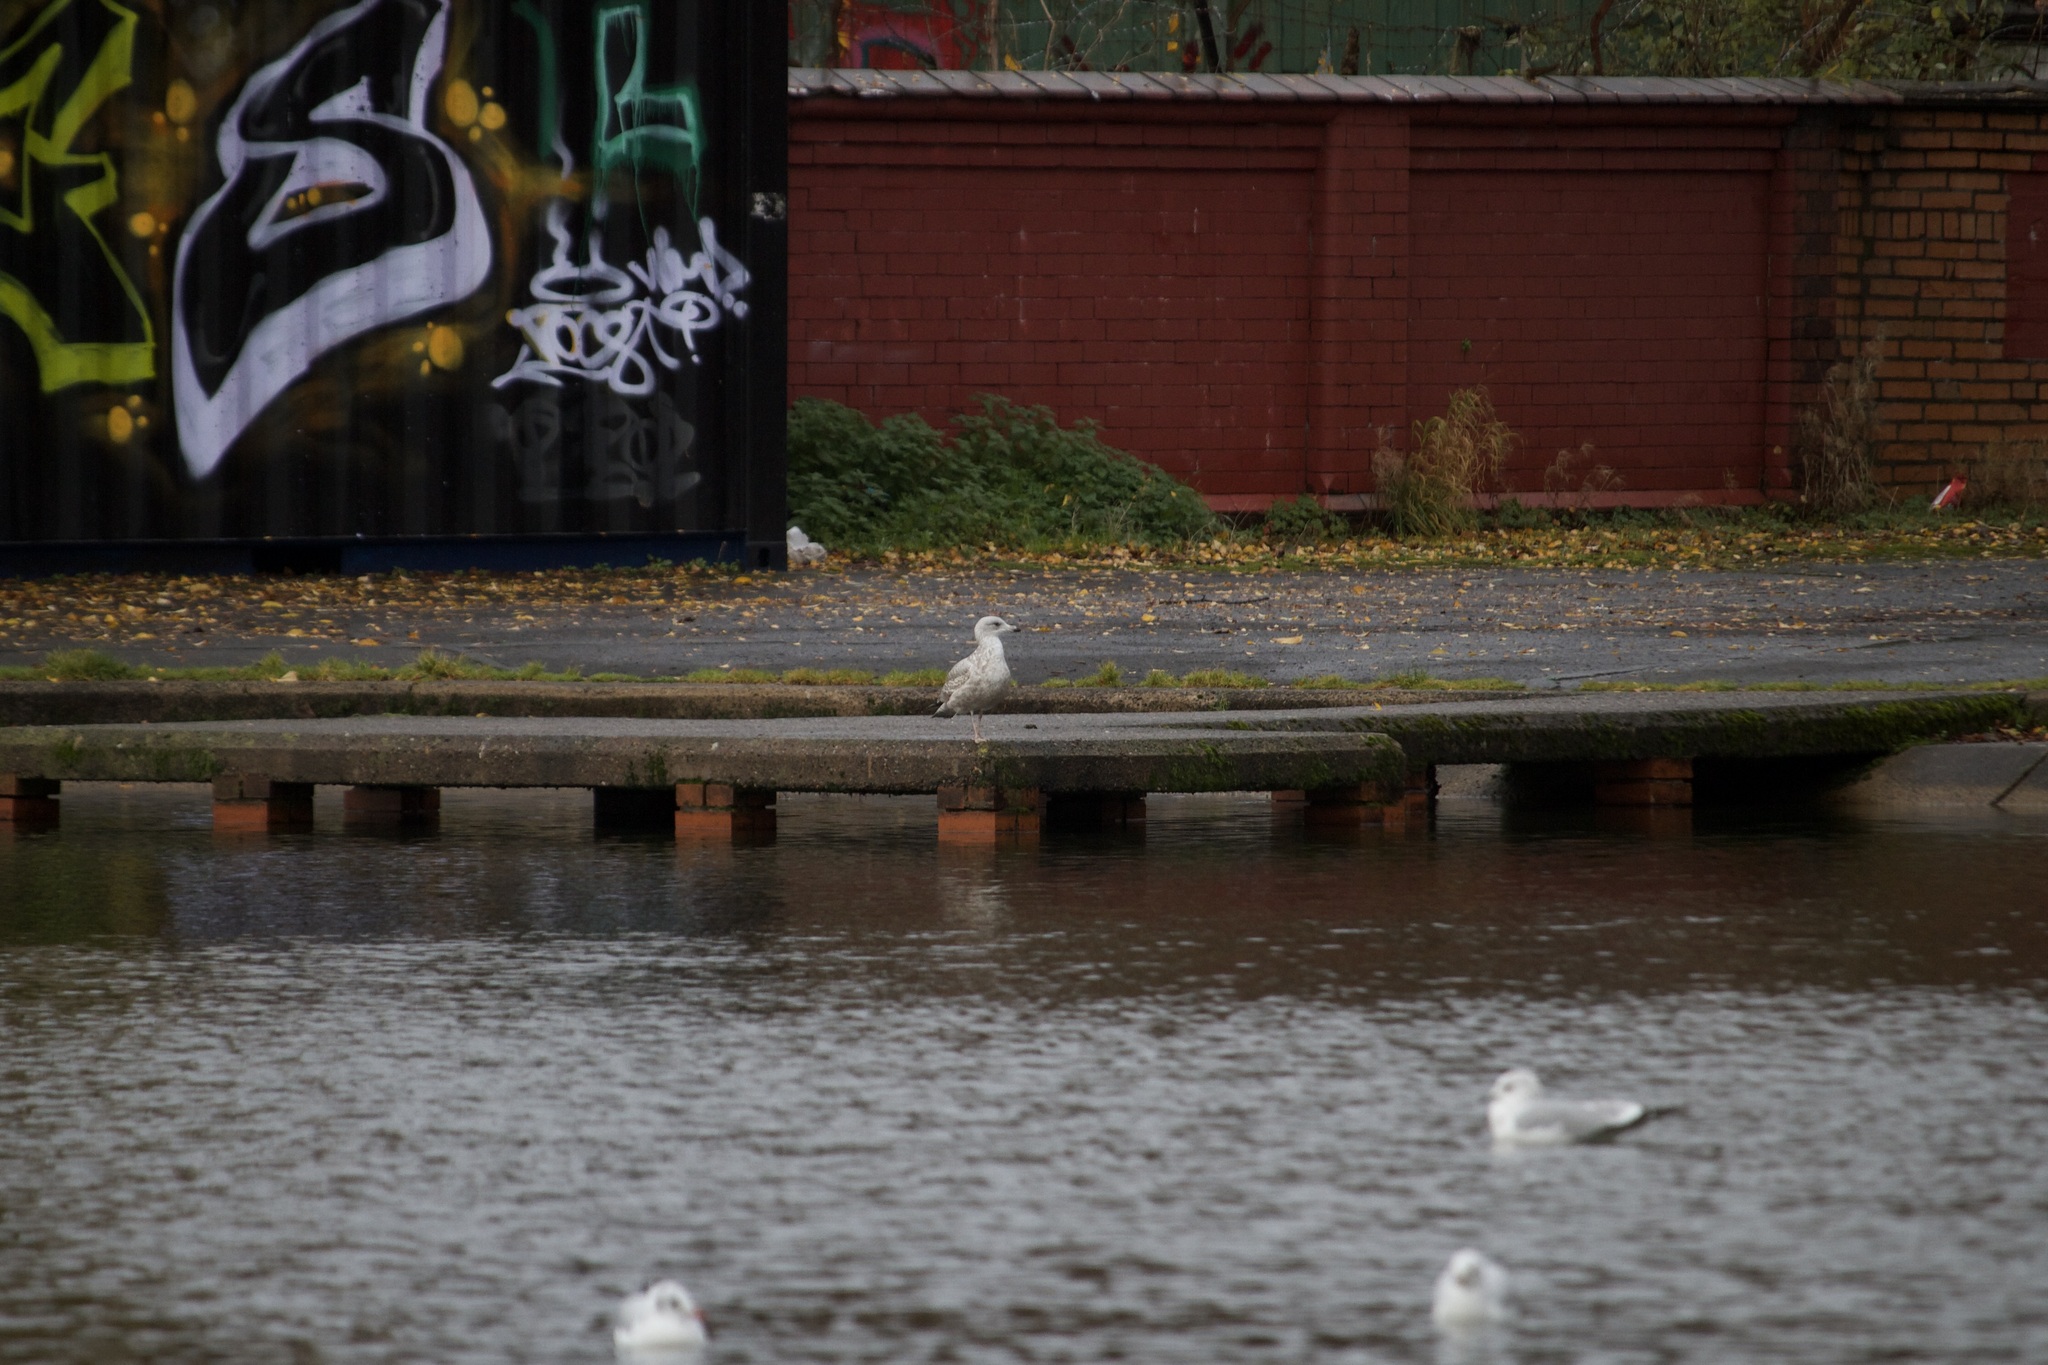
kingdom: Animalia
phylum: Chordata
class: Aves
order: Charadriiformes
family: Laridae
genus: Larus
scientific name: Larus argentatus
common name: Herring gull
